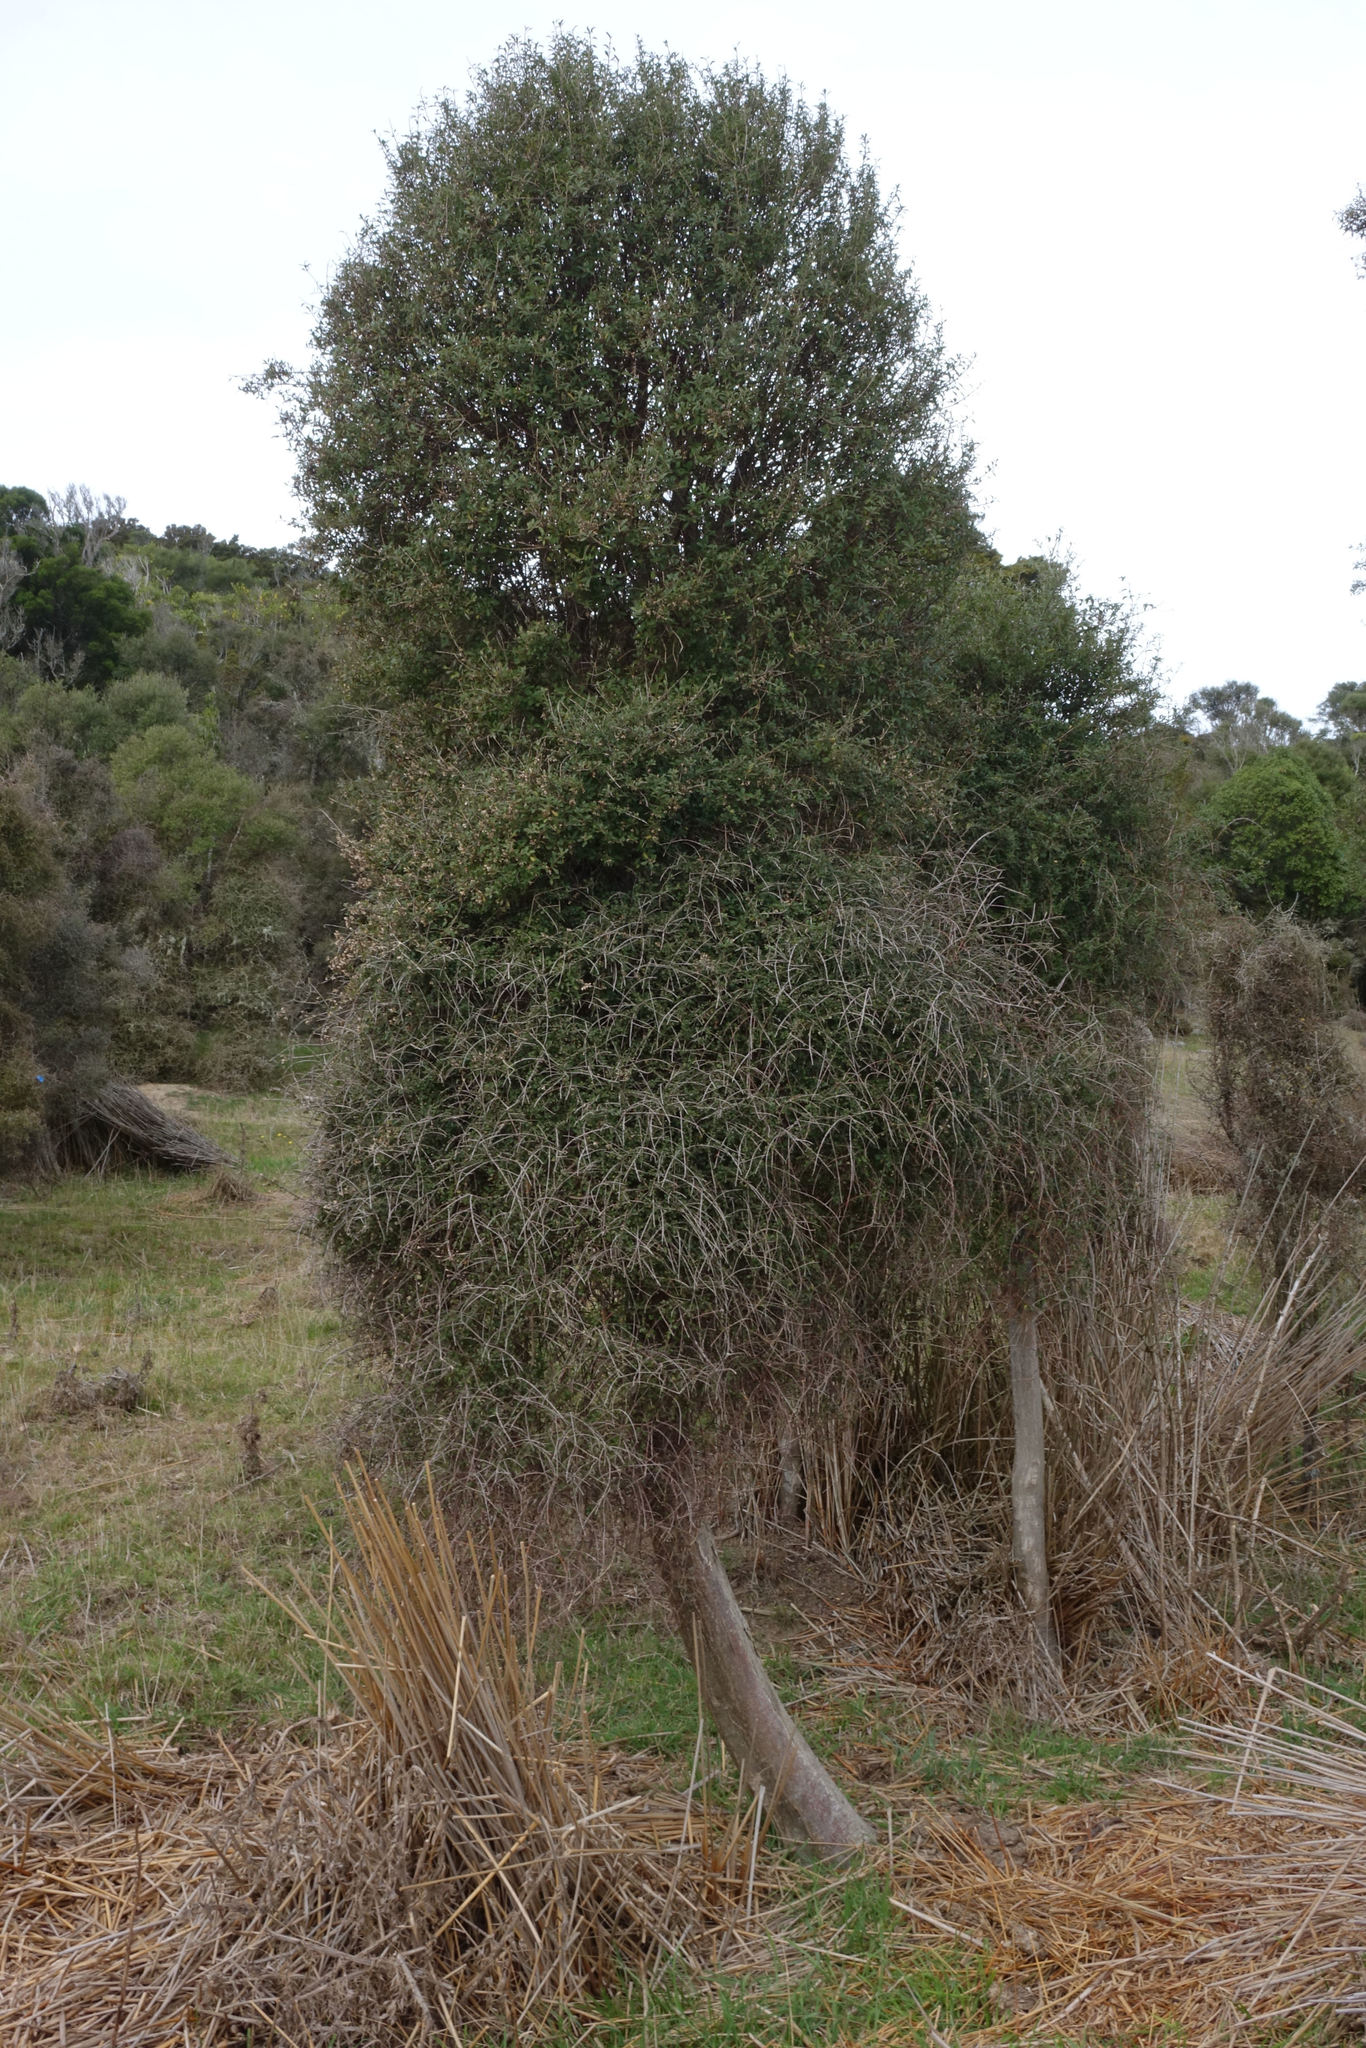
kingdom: Plantae
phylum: Tracheophyta
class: Magnoliopsida
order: Malvales
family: Malvaceae
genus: Hoheria
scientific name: Hoheria angustifolia
